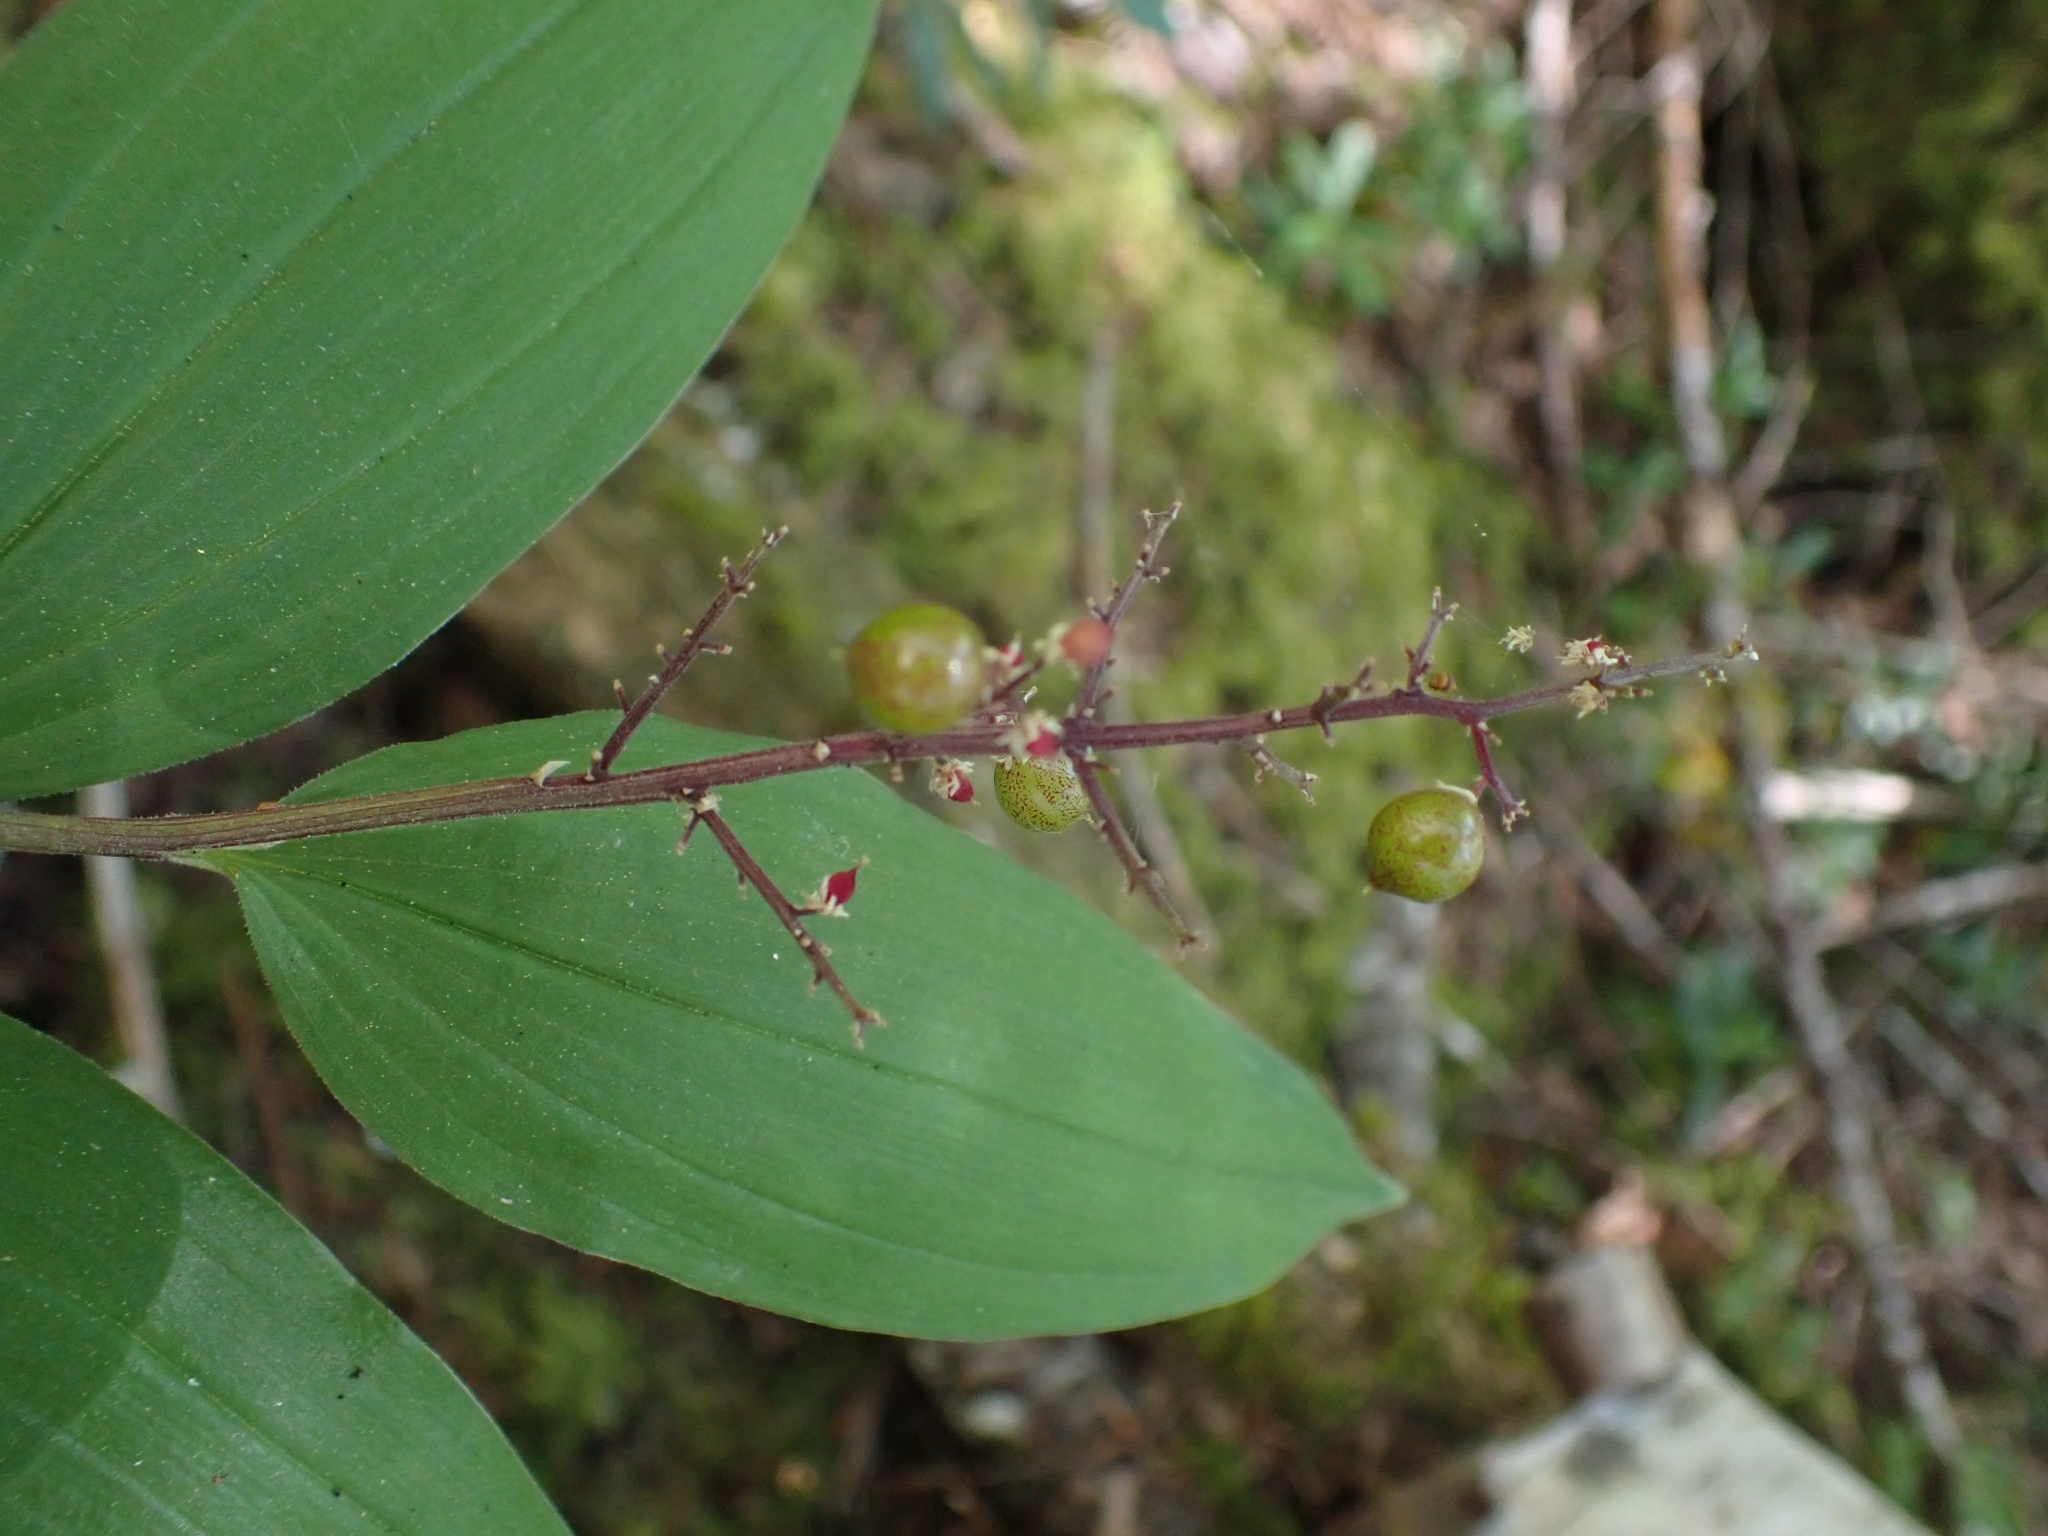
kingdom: Plantae
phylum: Tracheophyta
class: Liliopsida
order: Asparagales
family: Asparagaceae
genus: Maianthemum
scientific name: Maianthemum racemosum
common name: False spikenard
